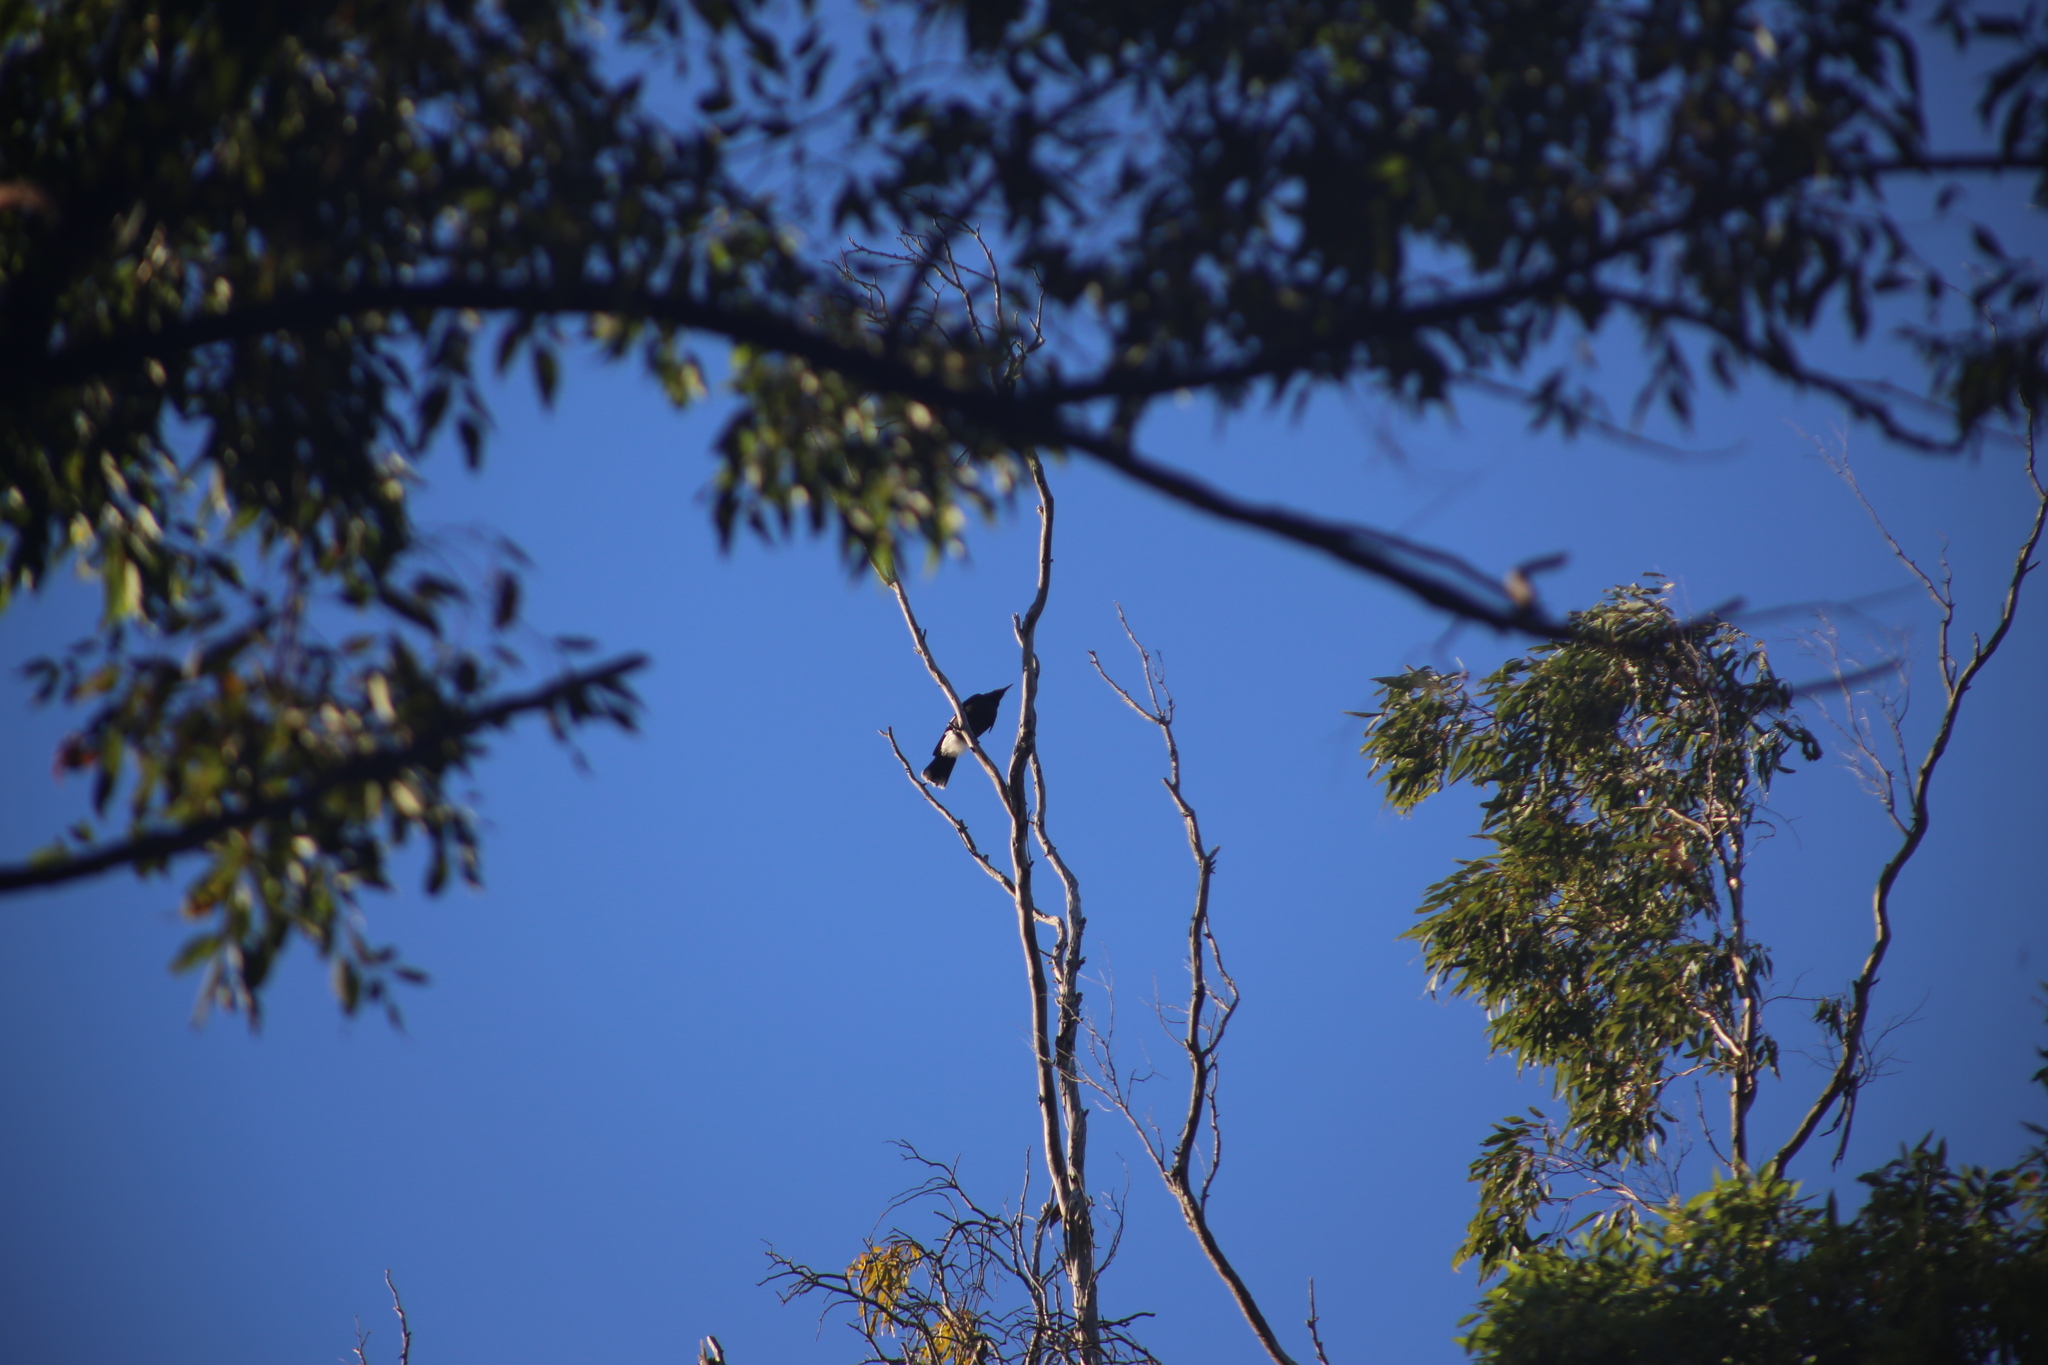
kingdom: Animalia
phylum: Chordata
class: Aves
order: Passeriformes
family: Cracticidae
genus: Strepera
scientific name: Strepera graculina
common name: Pied currawong
